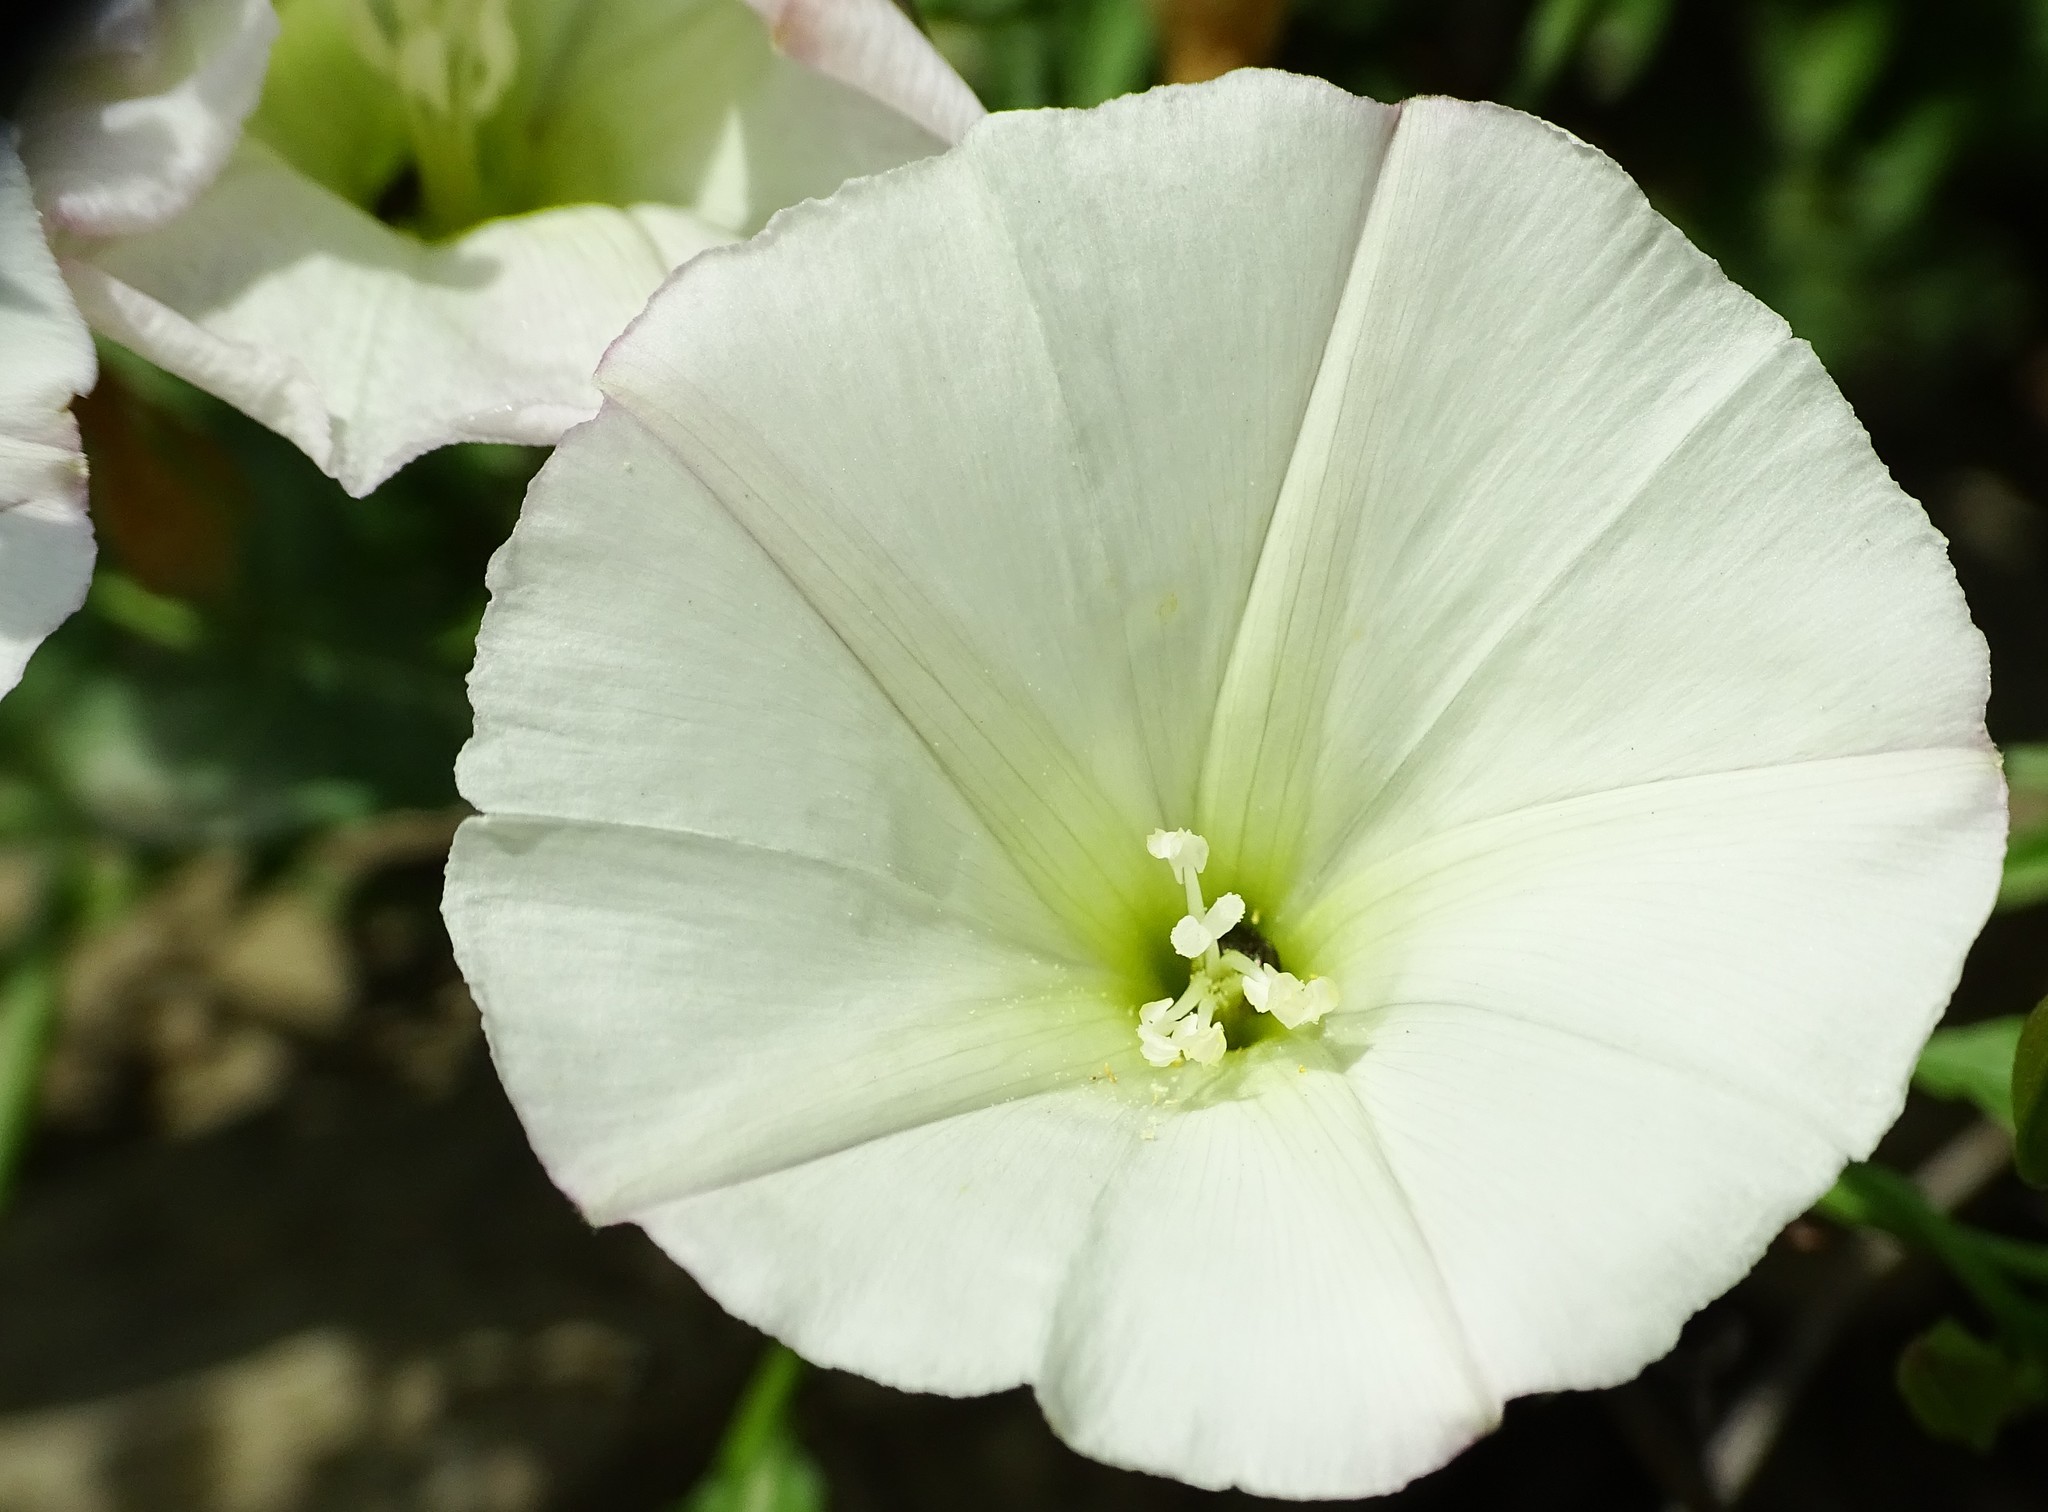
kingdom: Plantae
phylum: Tracheophyta
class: Magnoliopsida
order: Solanales
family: Convolvulaceae
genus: Calystegia
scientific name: Calystegia macrostegia
